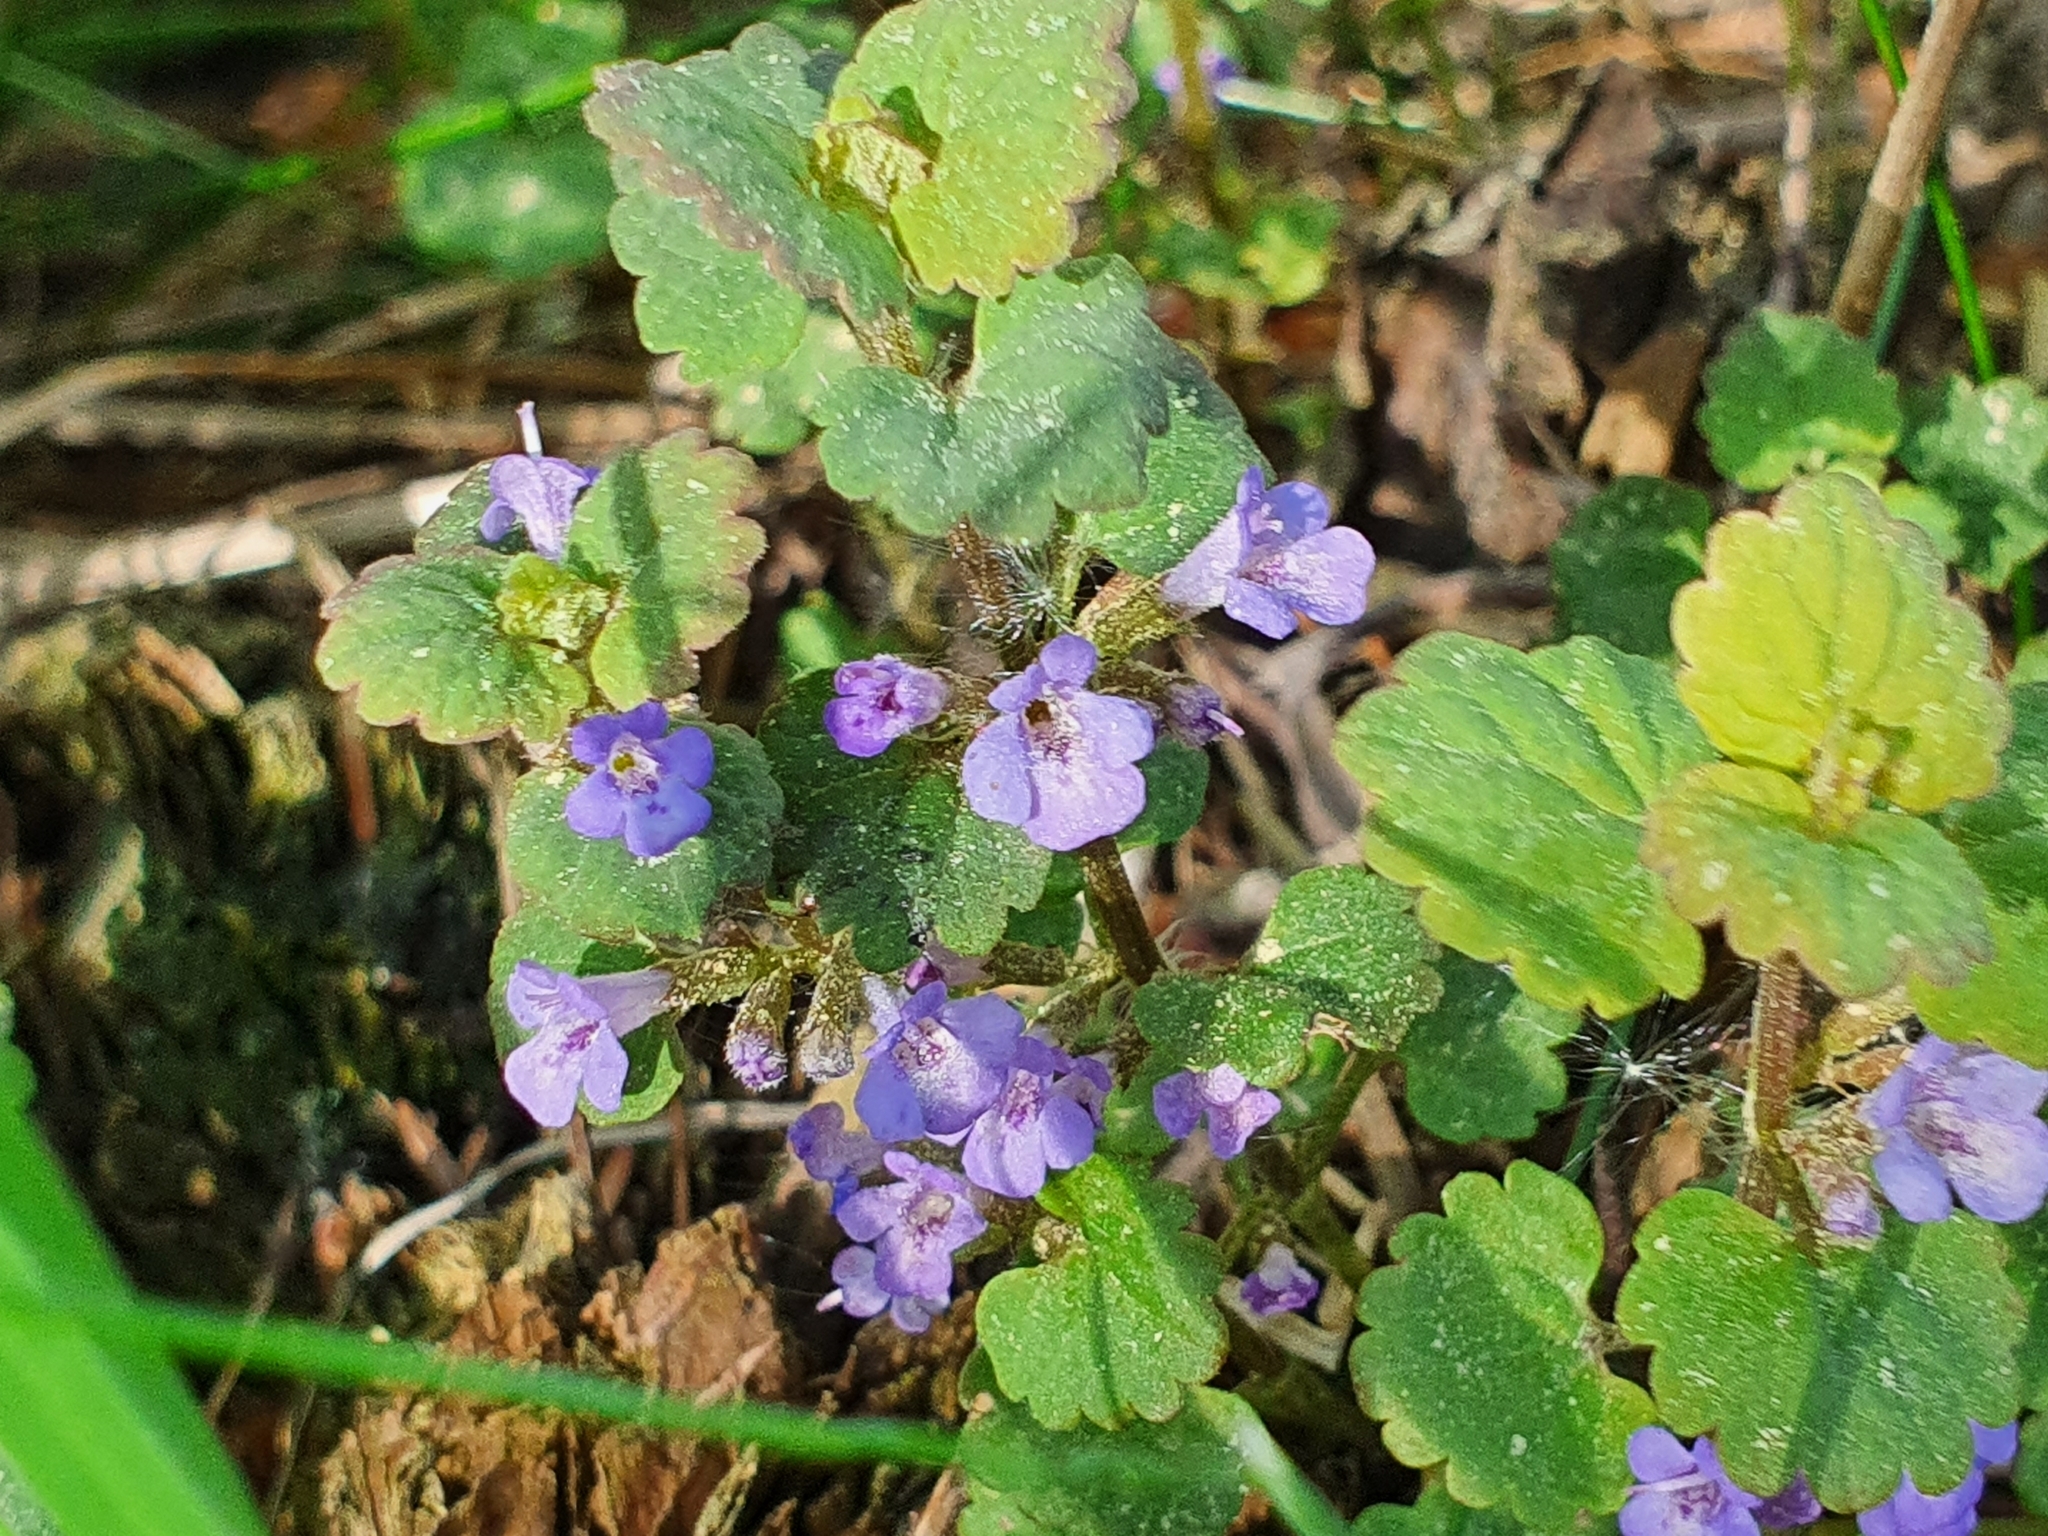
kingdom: Plantae
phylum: Tracheophyta
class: Magnoliopsida
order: Lamiales
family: Lamiaceae
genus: Glechoma
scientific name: Glechoma hederacea
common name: Ground ivy
